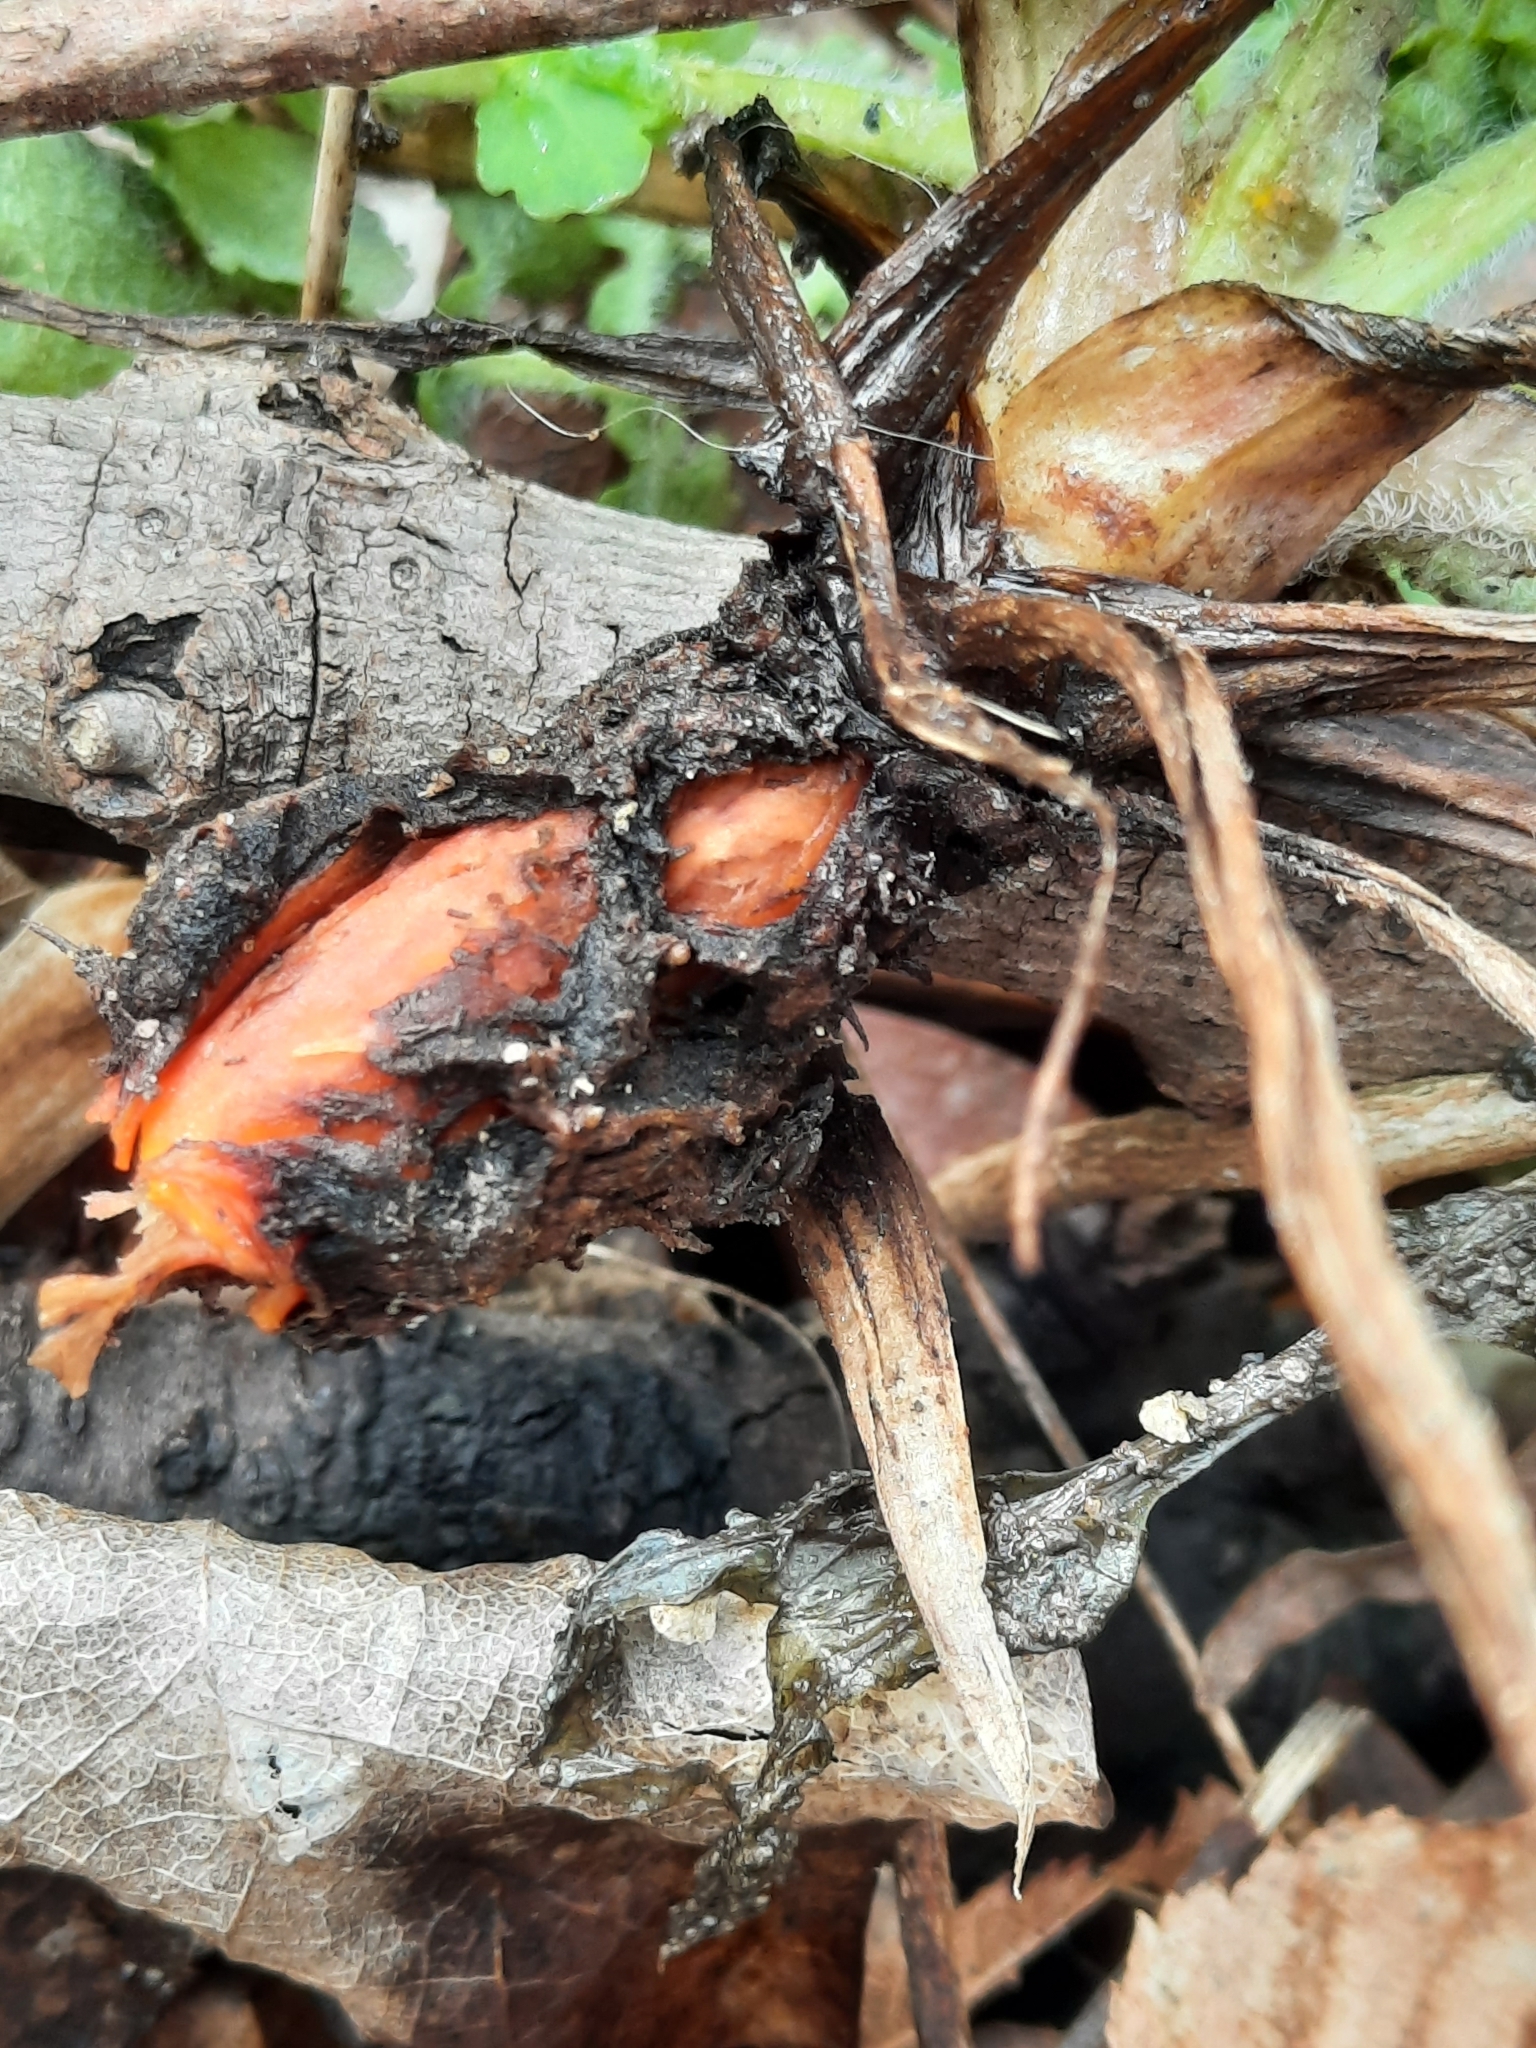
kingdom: Plantae
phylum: Tracheophyta
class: Magnoliopsida
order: Ranunculales
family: Papaveraceae
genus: Chelidonium
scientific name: Chelidonium majus
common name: Greater celandine
